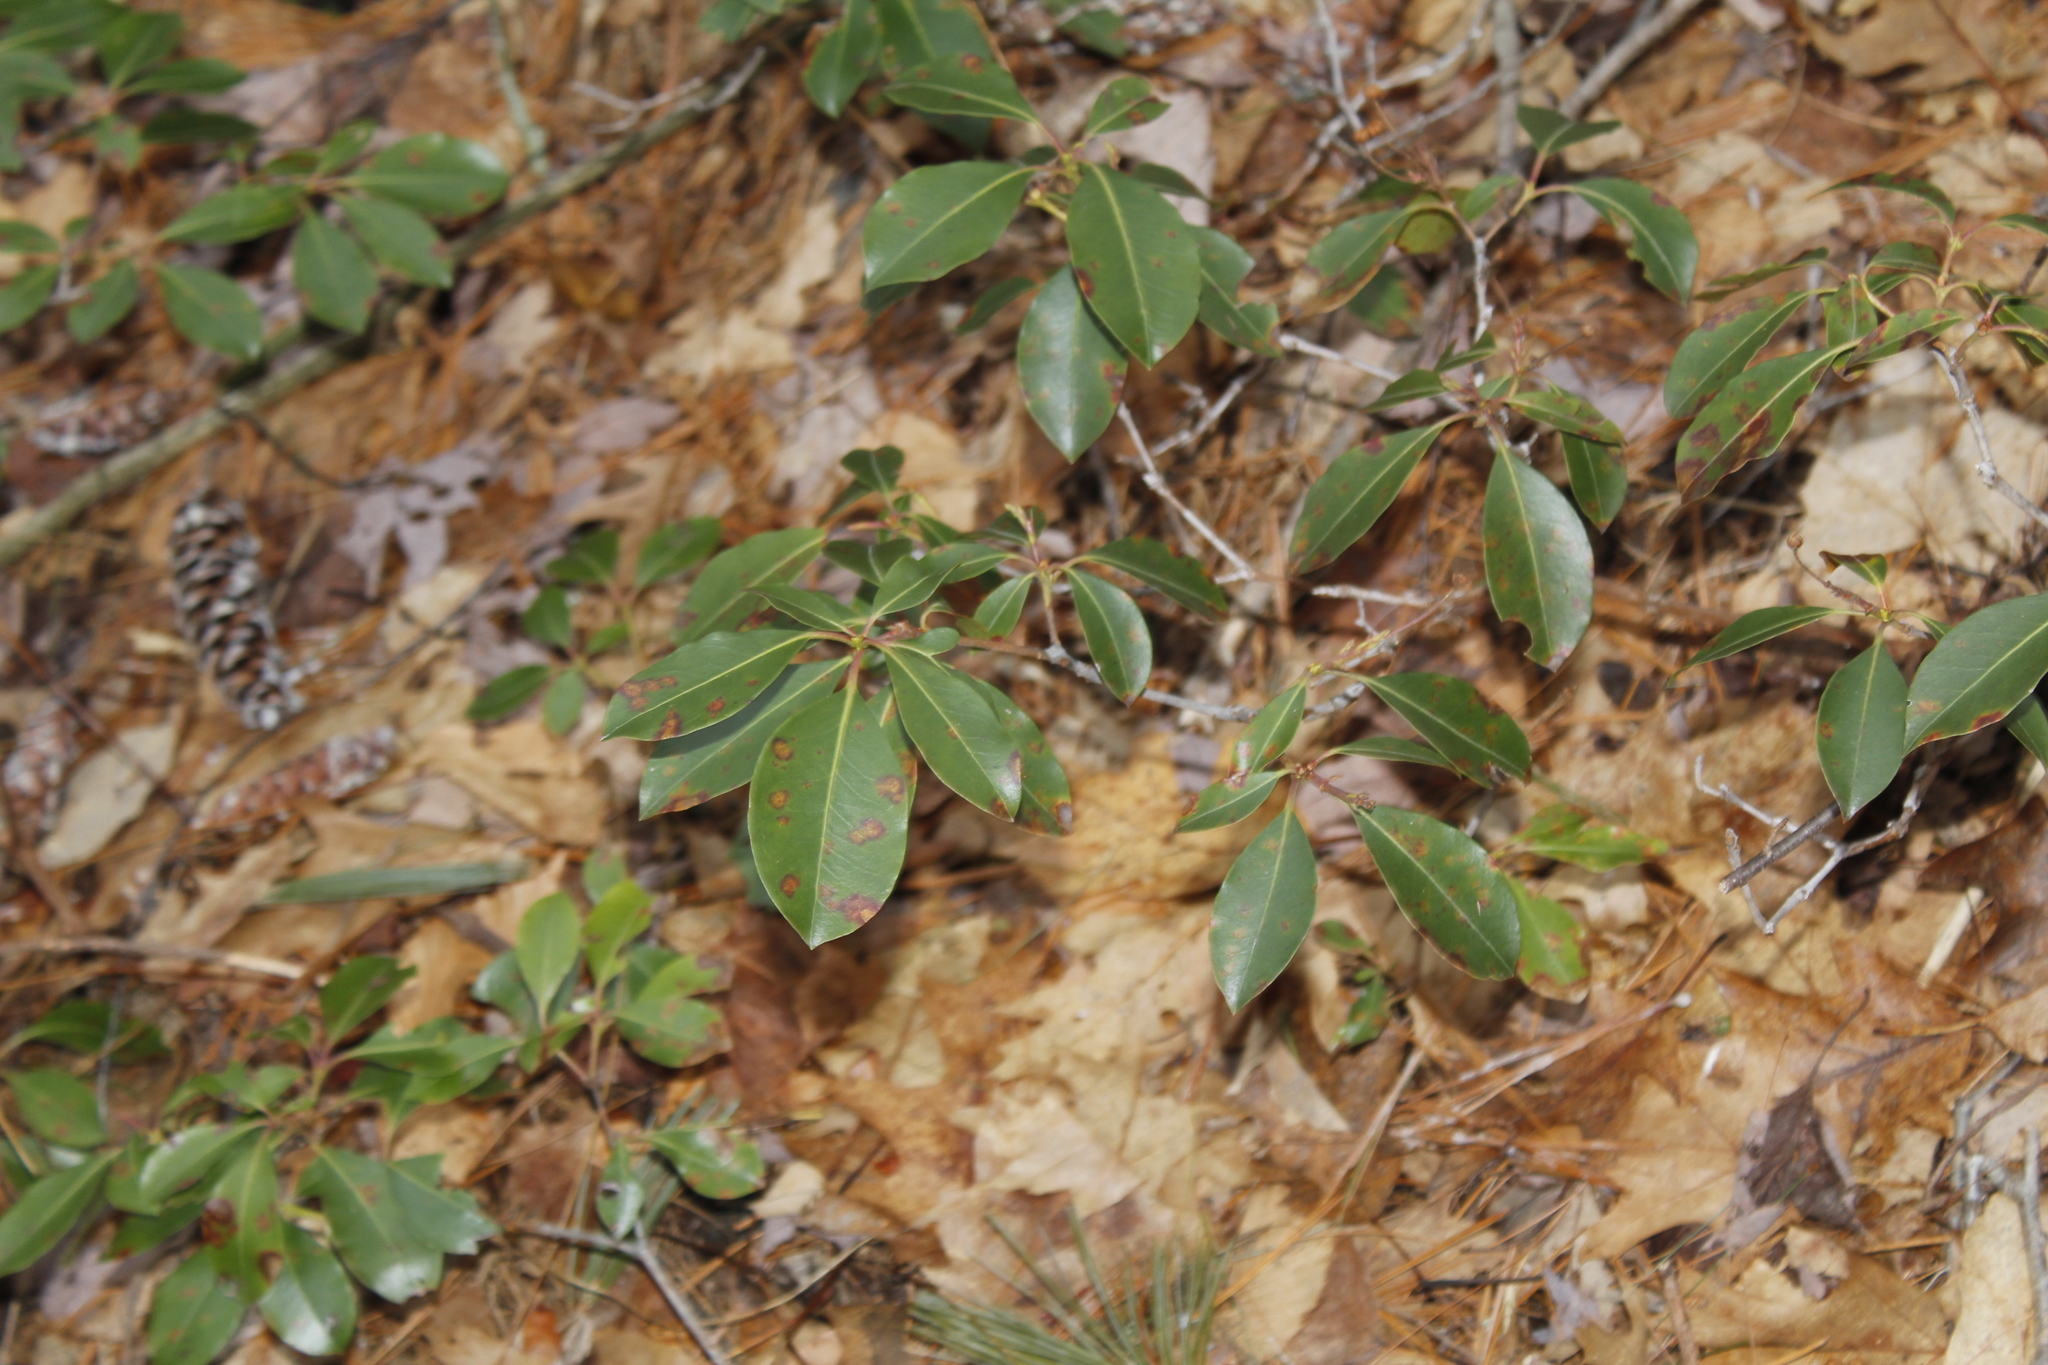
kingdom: Plantae
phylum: Tracheophyta
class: Magnoliopsida
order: Ericales
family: Ericaceae
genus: Kalmia
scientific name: Kalmia latifolia
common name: Mountain-laurel
